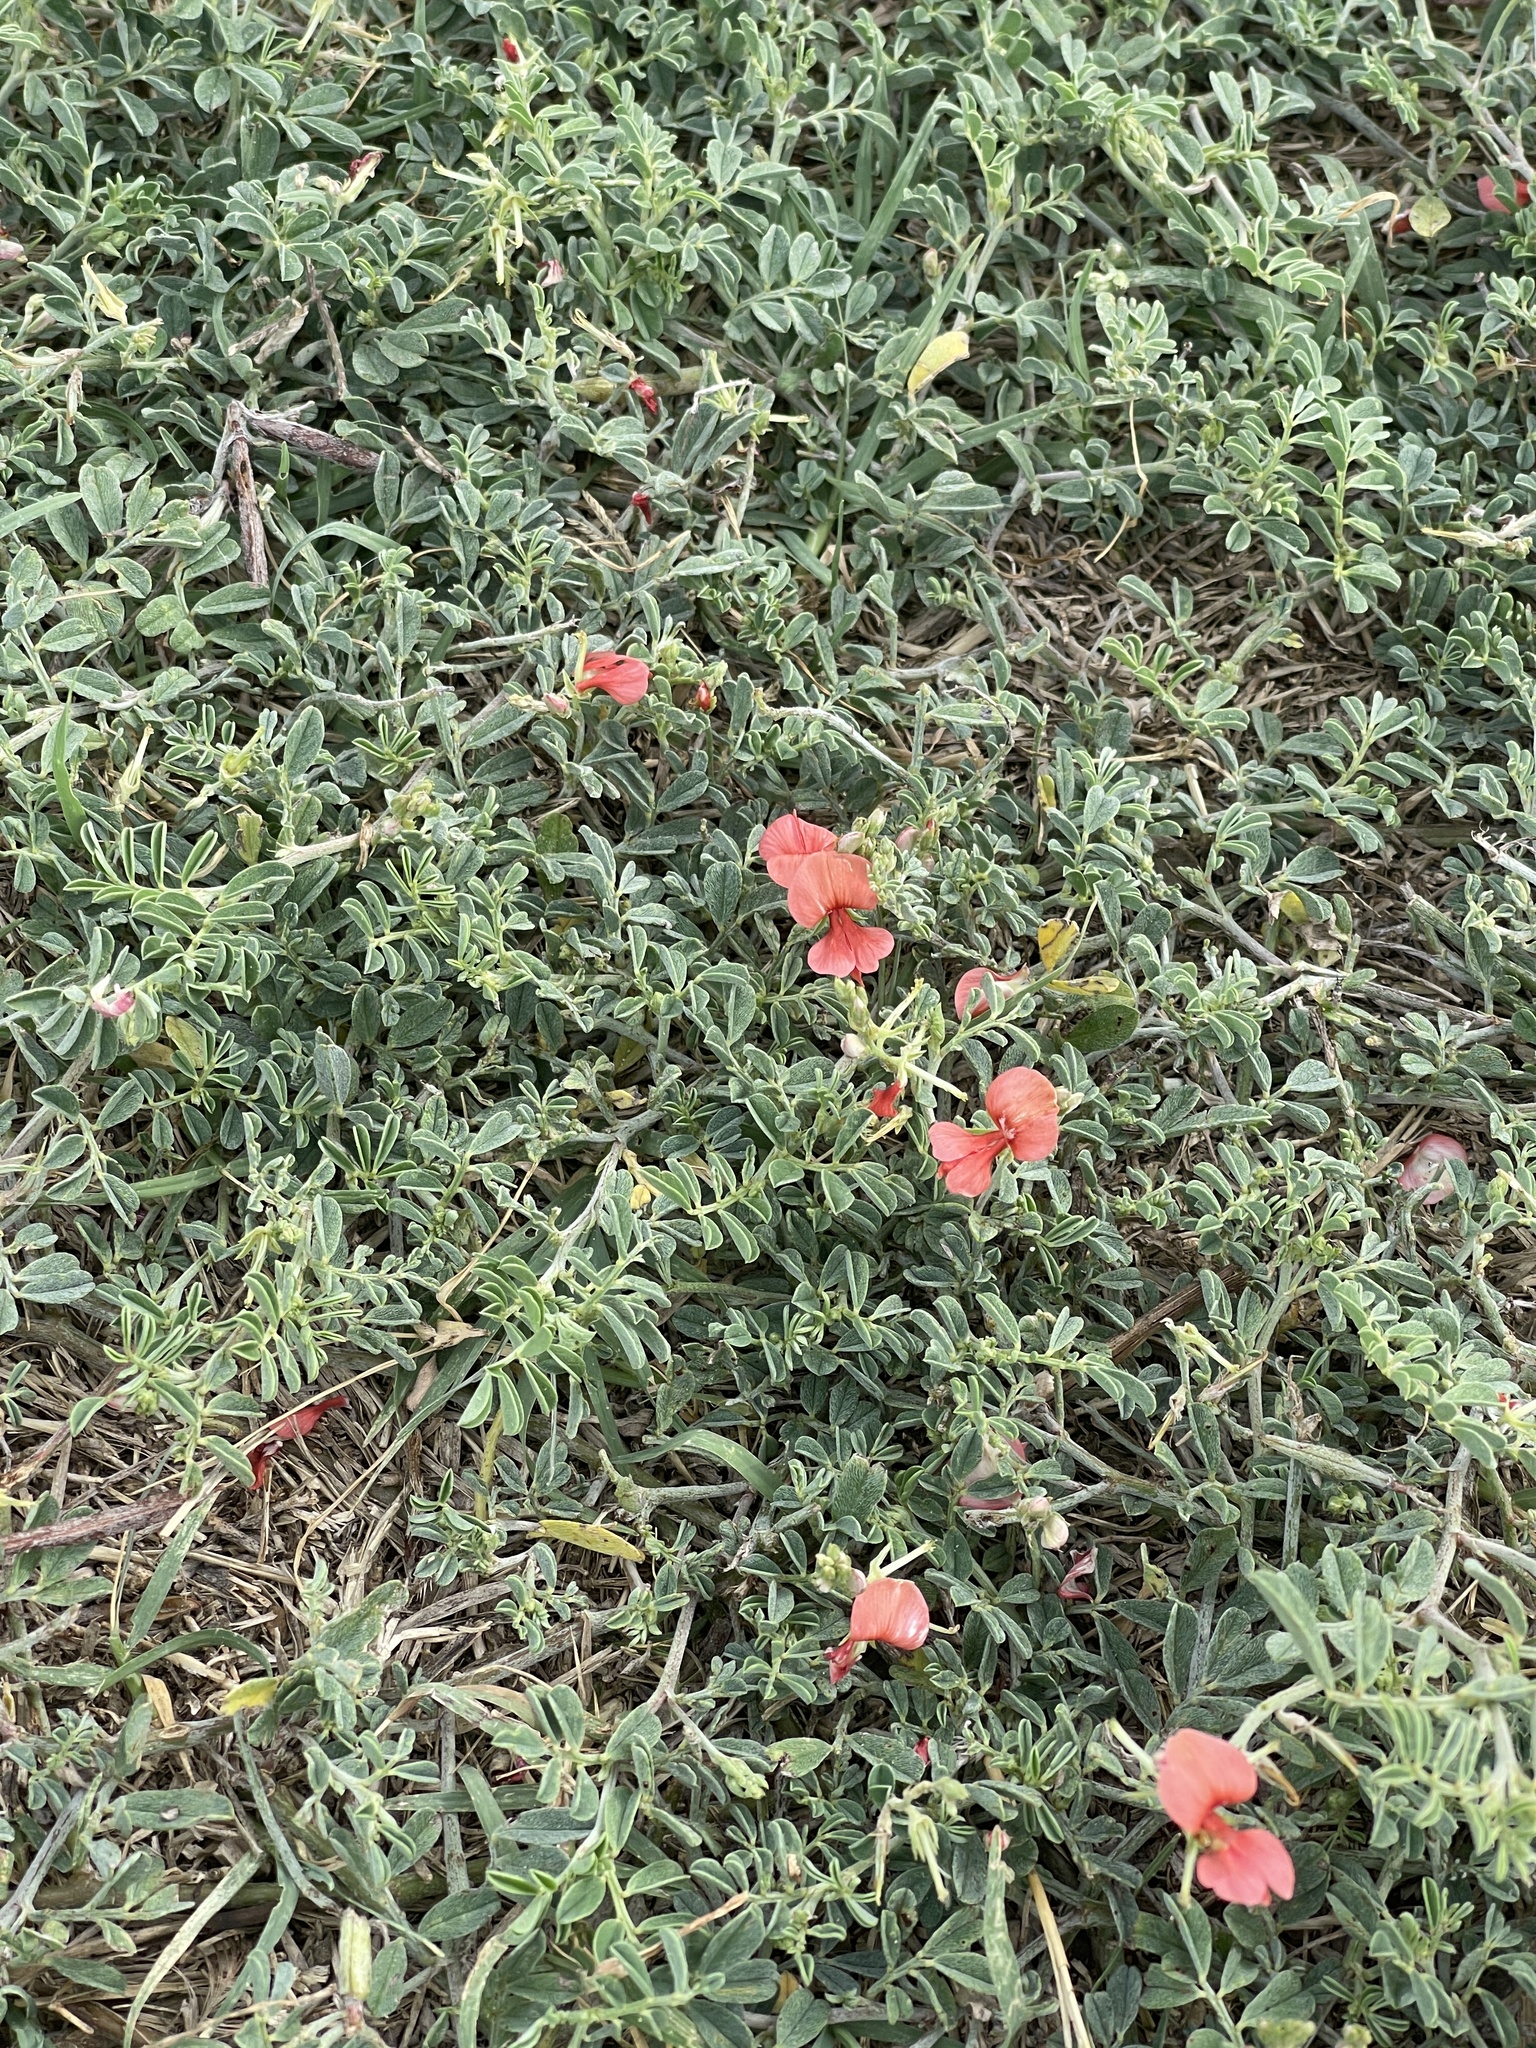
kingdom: Plantae
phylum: Tracheophyta
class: Magnoliopsida
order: Fabales
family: Fabaceae
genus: Indigofera
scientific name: Indigofera miniata
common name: Coast indigo
